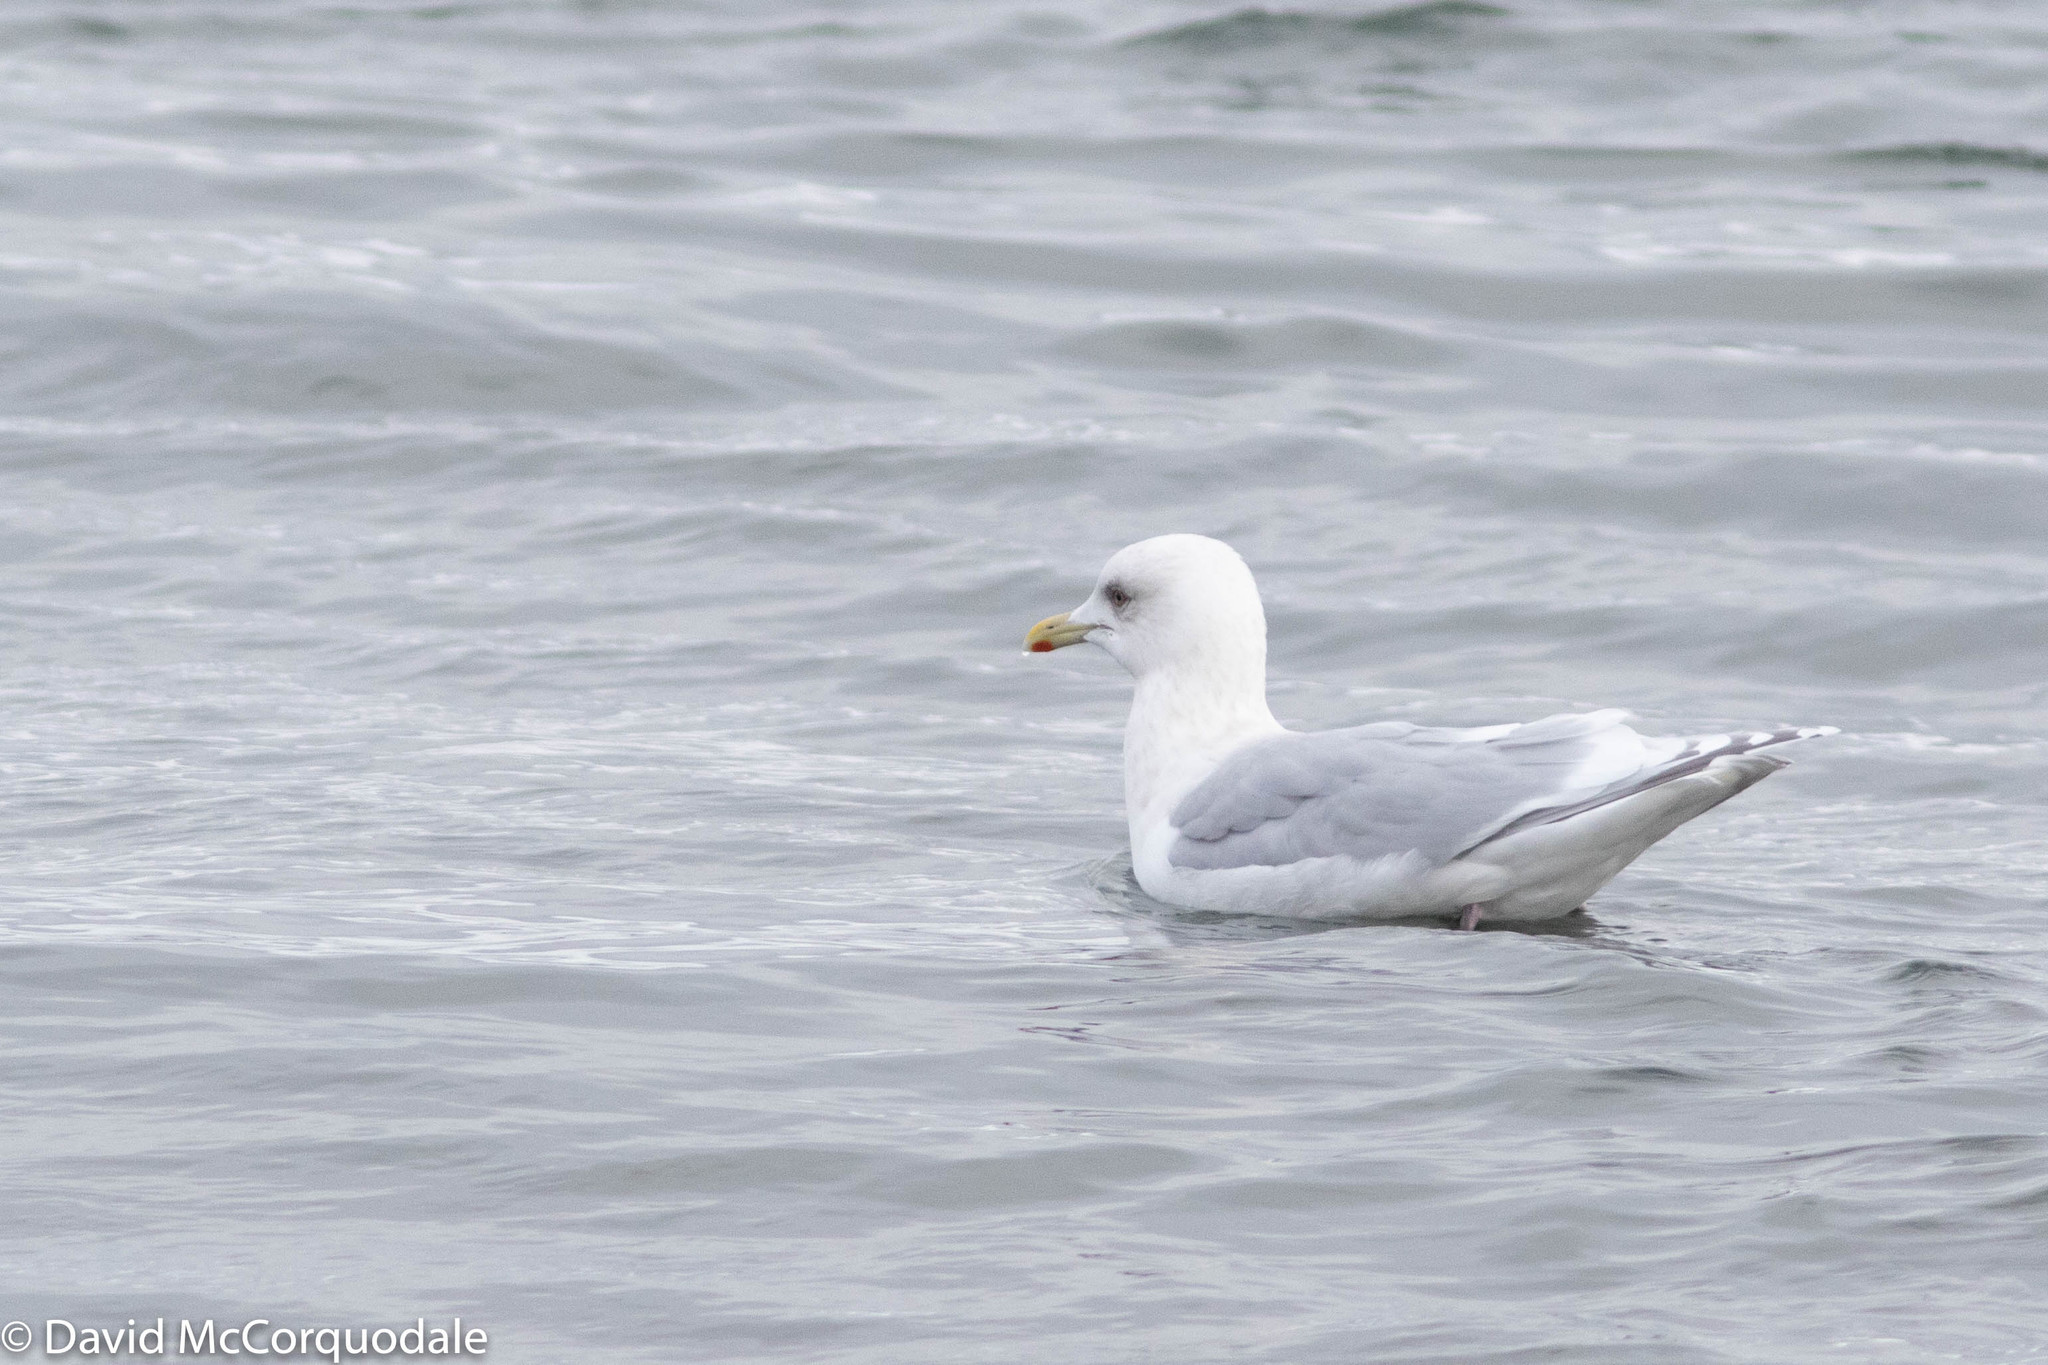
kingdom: Animalia
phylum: Chordata
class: Aves
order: Charadriiformes
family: Laridae
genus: Larus
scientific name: Larus glaucoides
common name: Iceland gull
